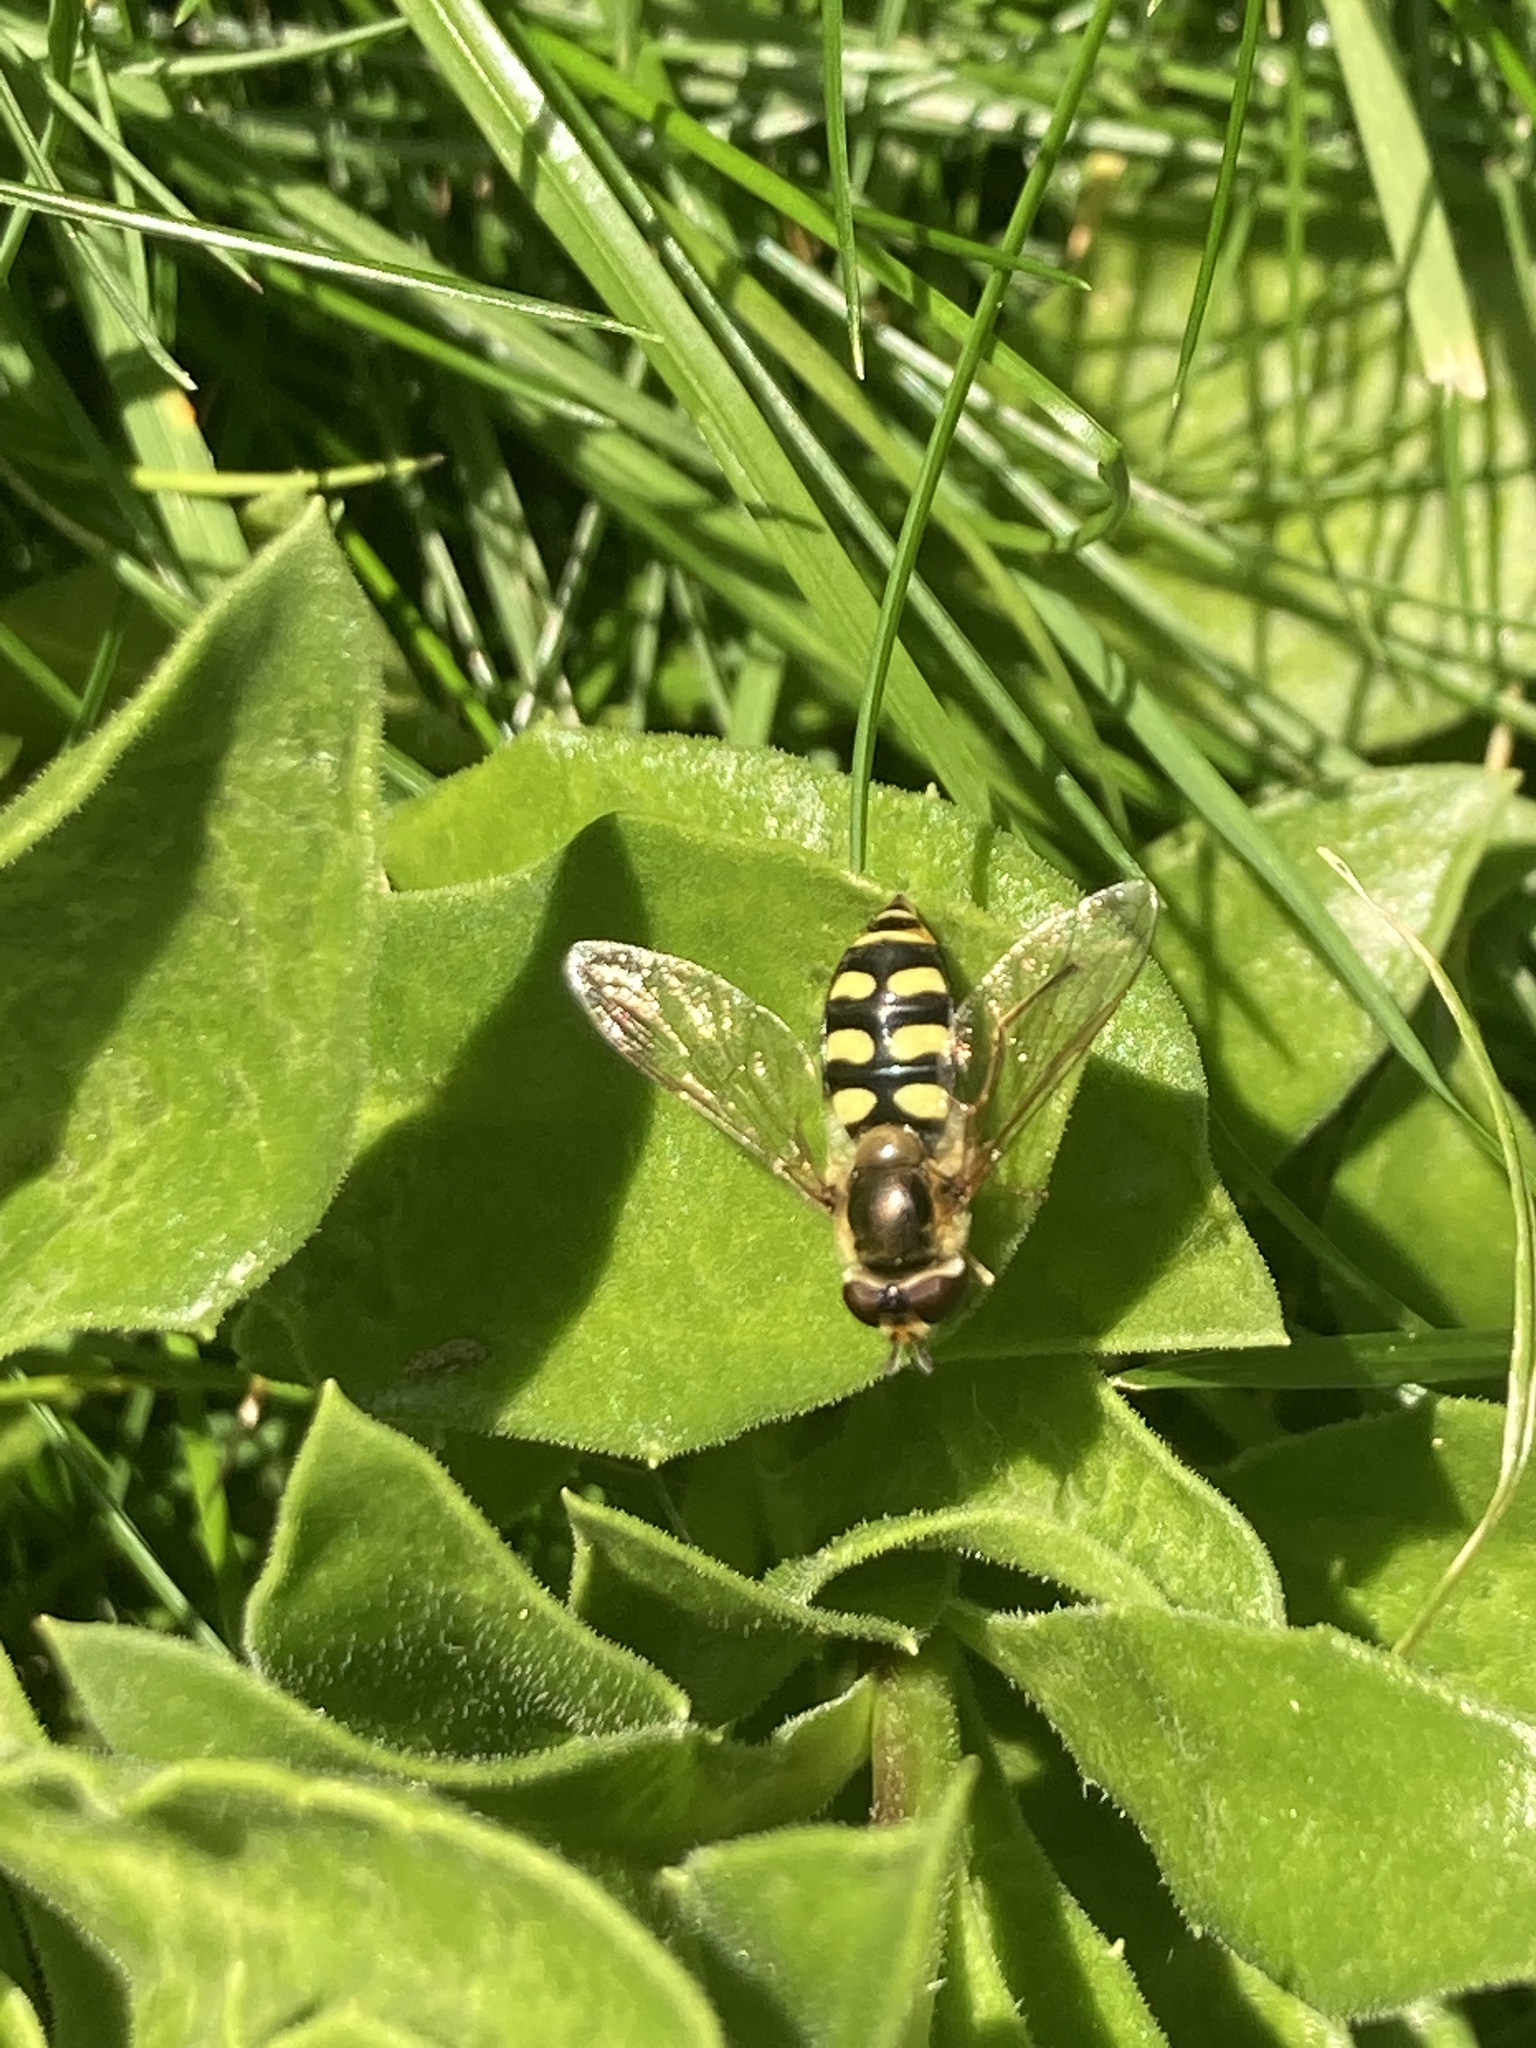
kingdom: Animalia
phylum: Arthropoda
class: Insecta
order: Diptera
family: Syrphidae
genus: Eupeodes
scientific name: Eupeodes luniger
